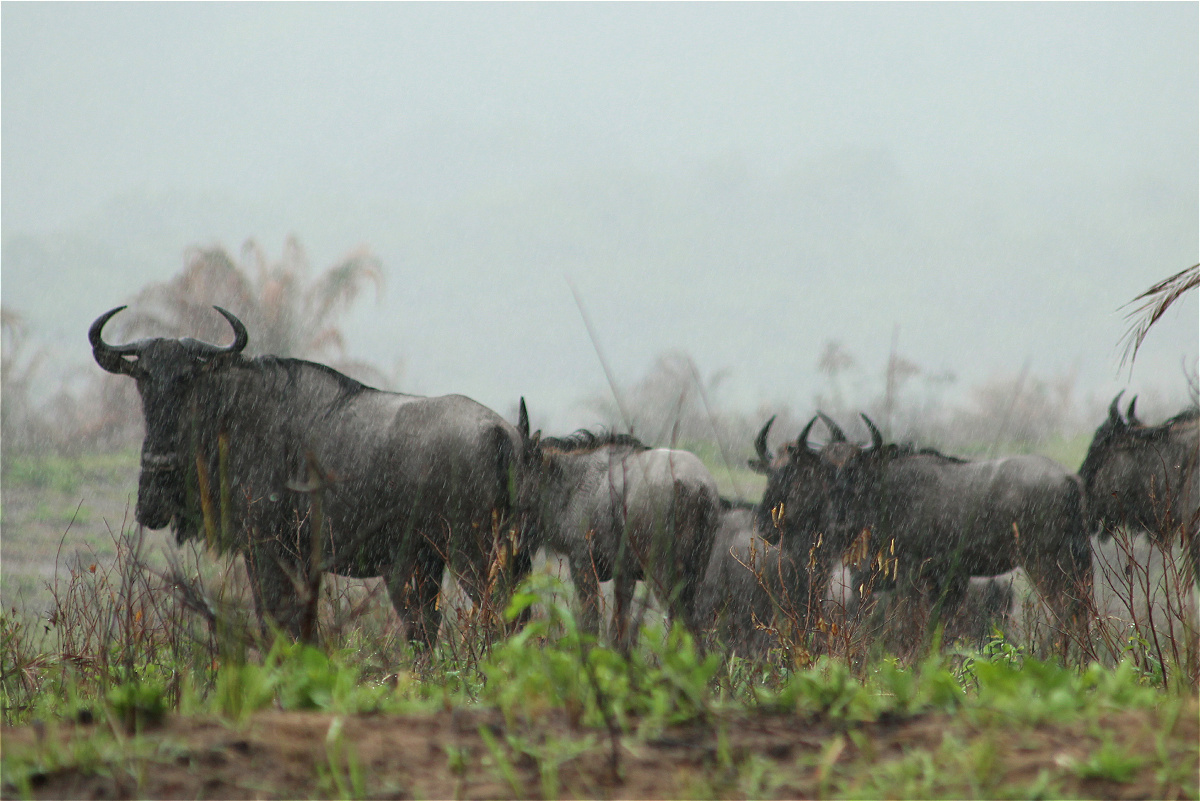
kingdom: Animalia
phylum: Chordata
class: Mammalia
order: Artiodactyla
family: Bovidae
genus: Connochaetes
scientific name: Connochaetes taurinus
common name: Blue wildebeest
